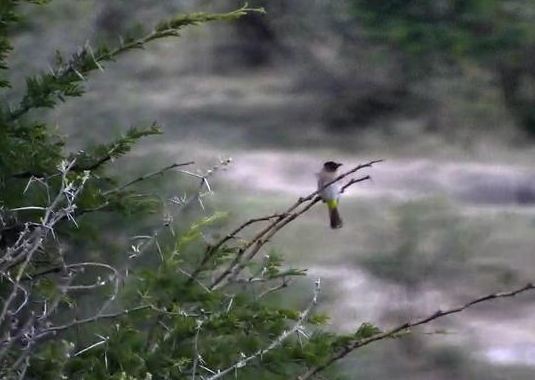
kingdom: Animalia
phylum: Chordata
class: Aves
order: Passeriformes
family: Pycnonotidae
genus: Pycnonotus
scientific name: Pycnonotus barbatus
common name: Common bulbul
